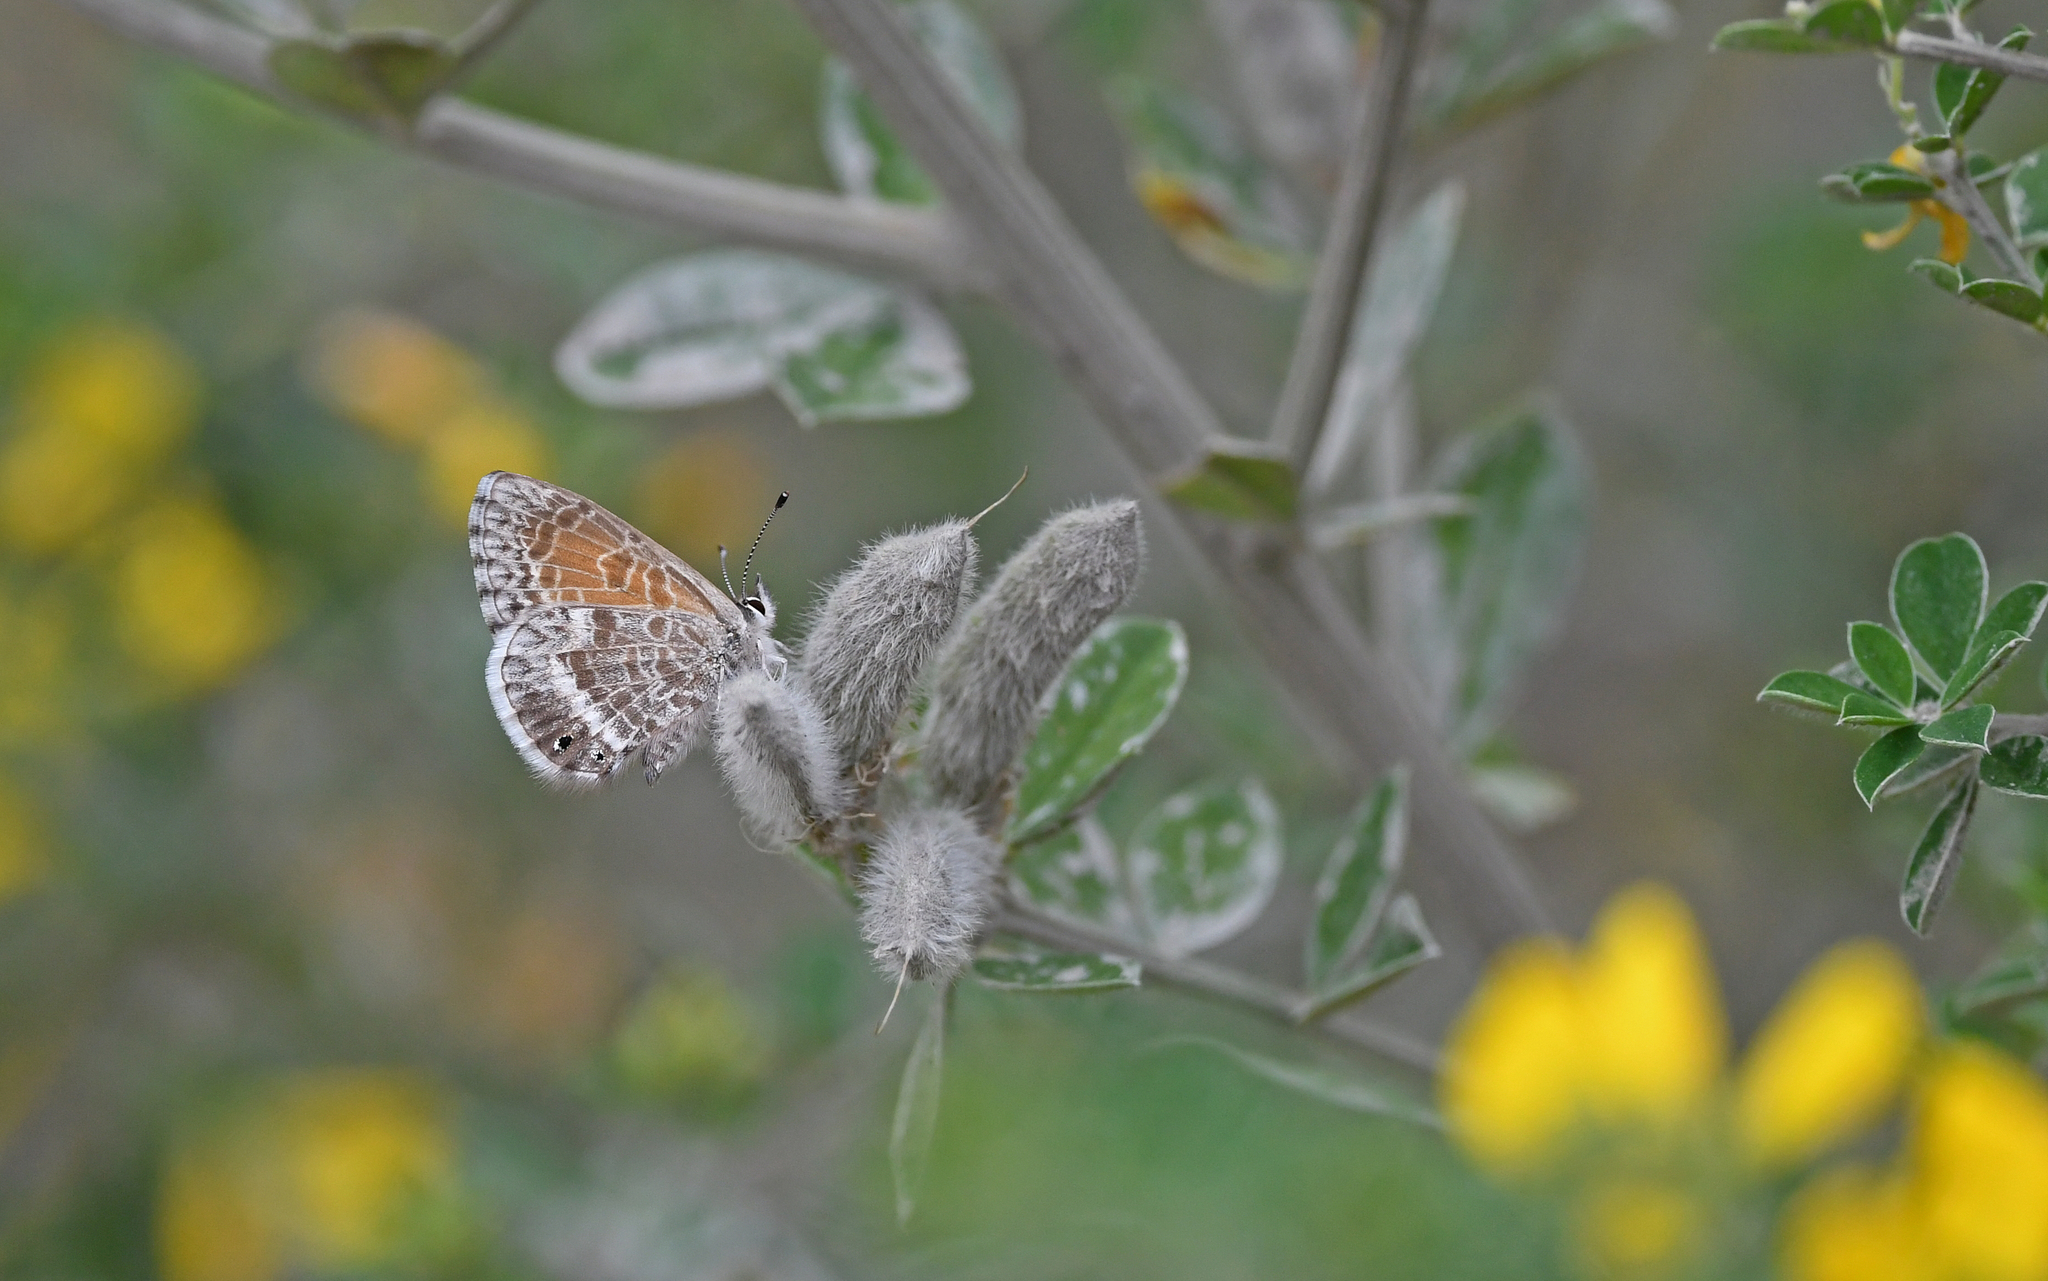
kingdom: Animalia
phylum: Arthropoda
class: Insecta
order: Lepidoptera
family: Lycaenidae
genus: Leptotes
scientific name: Leptotes callanga
